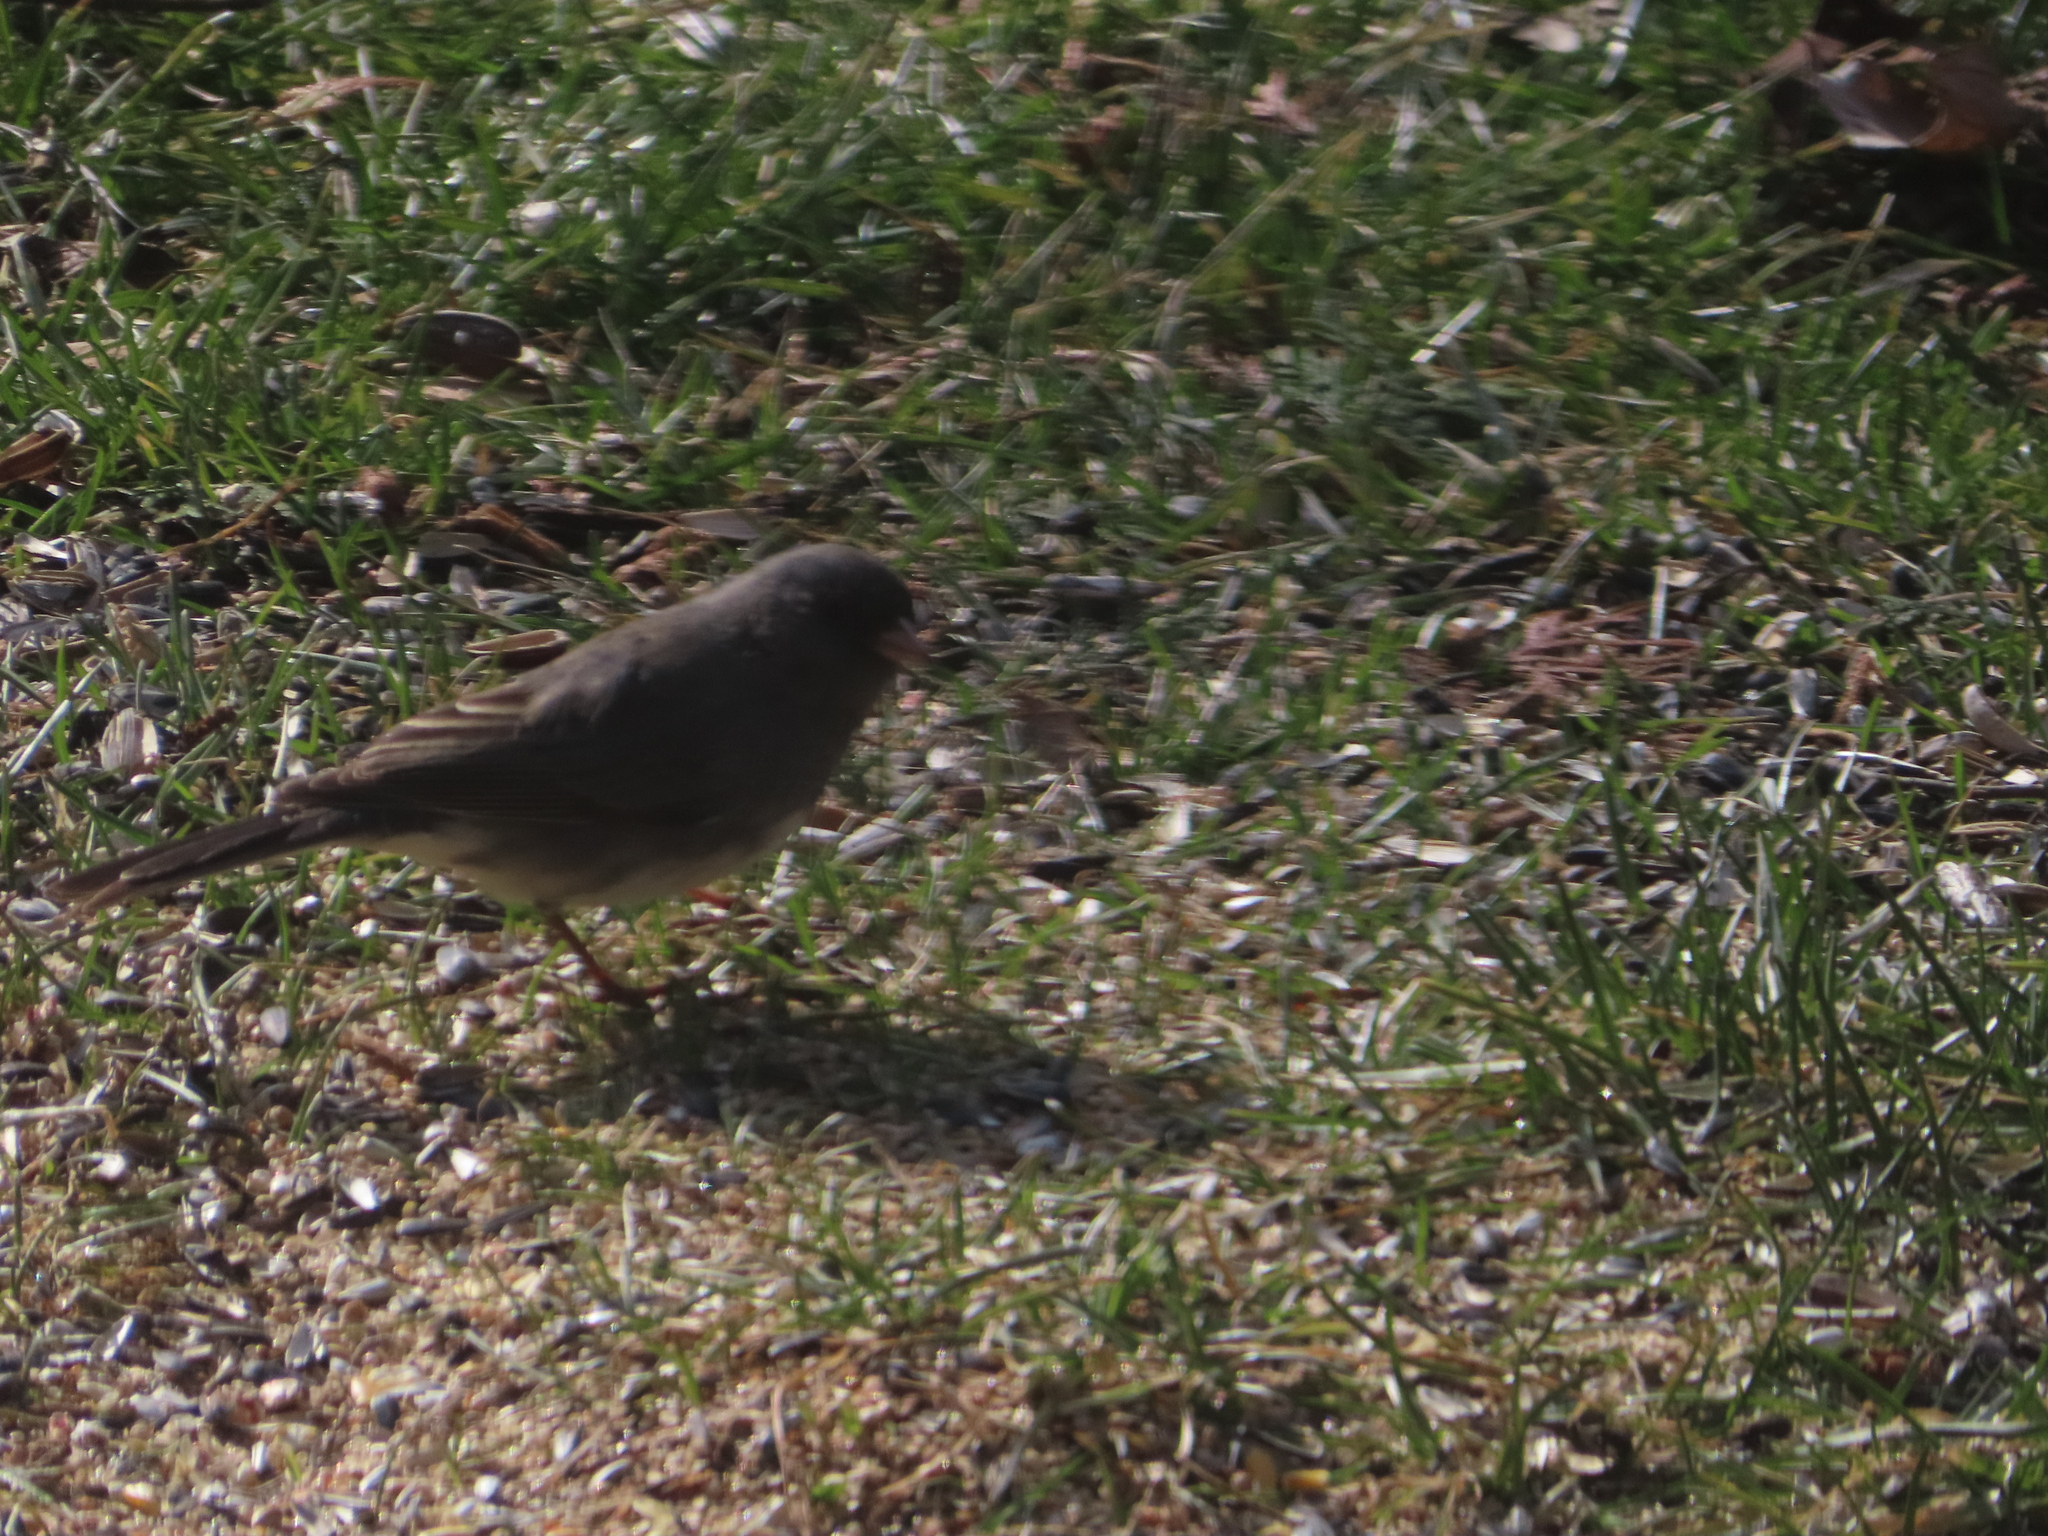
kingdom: Animalia
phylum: Chordata
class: Aves
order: Passeriformes
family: Passerellidae
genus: Junco
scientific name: Junco hyemalis
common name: Dark-eyed junco
